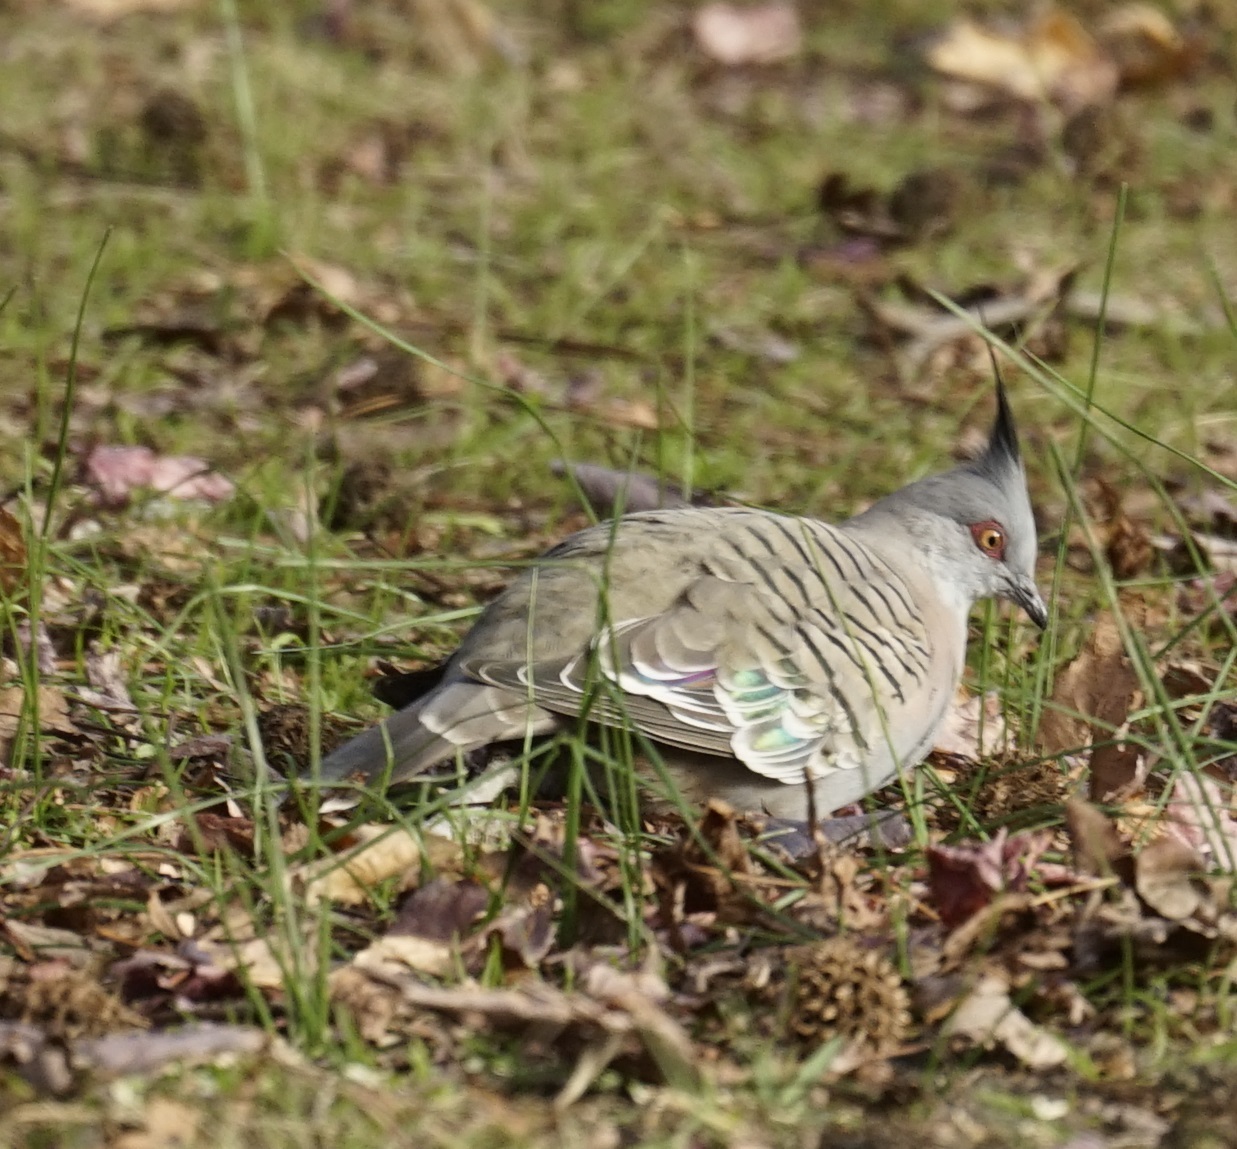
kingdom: Animalia
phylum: Chordata
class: Aves
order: Columbiformes
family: Columbidae
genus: Ocyphaps
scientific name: Ocyphaps lophotes
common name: Crested pigeon
